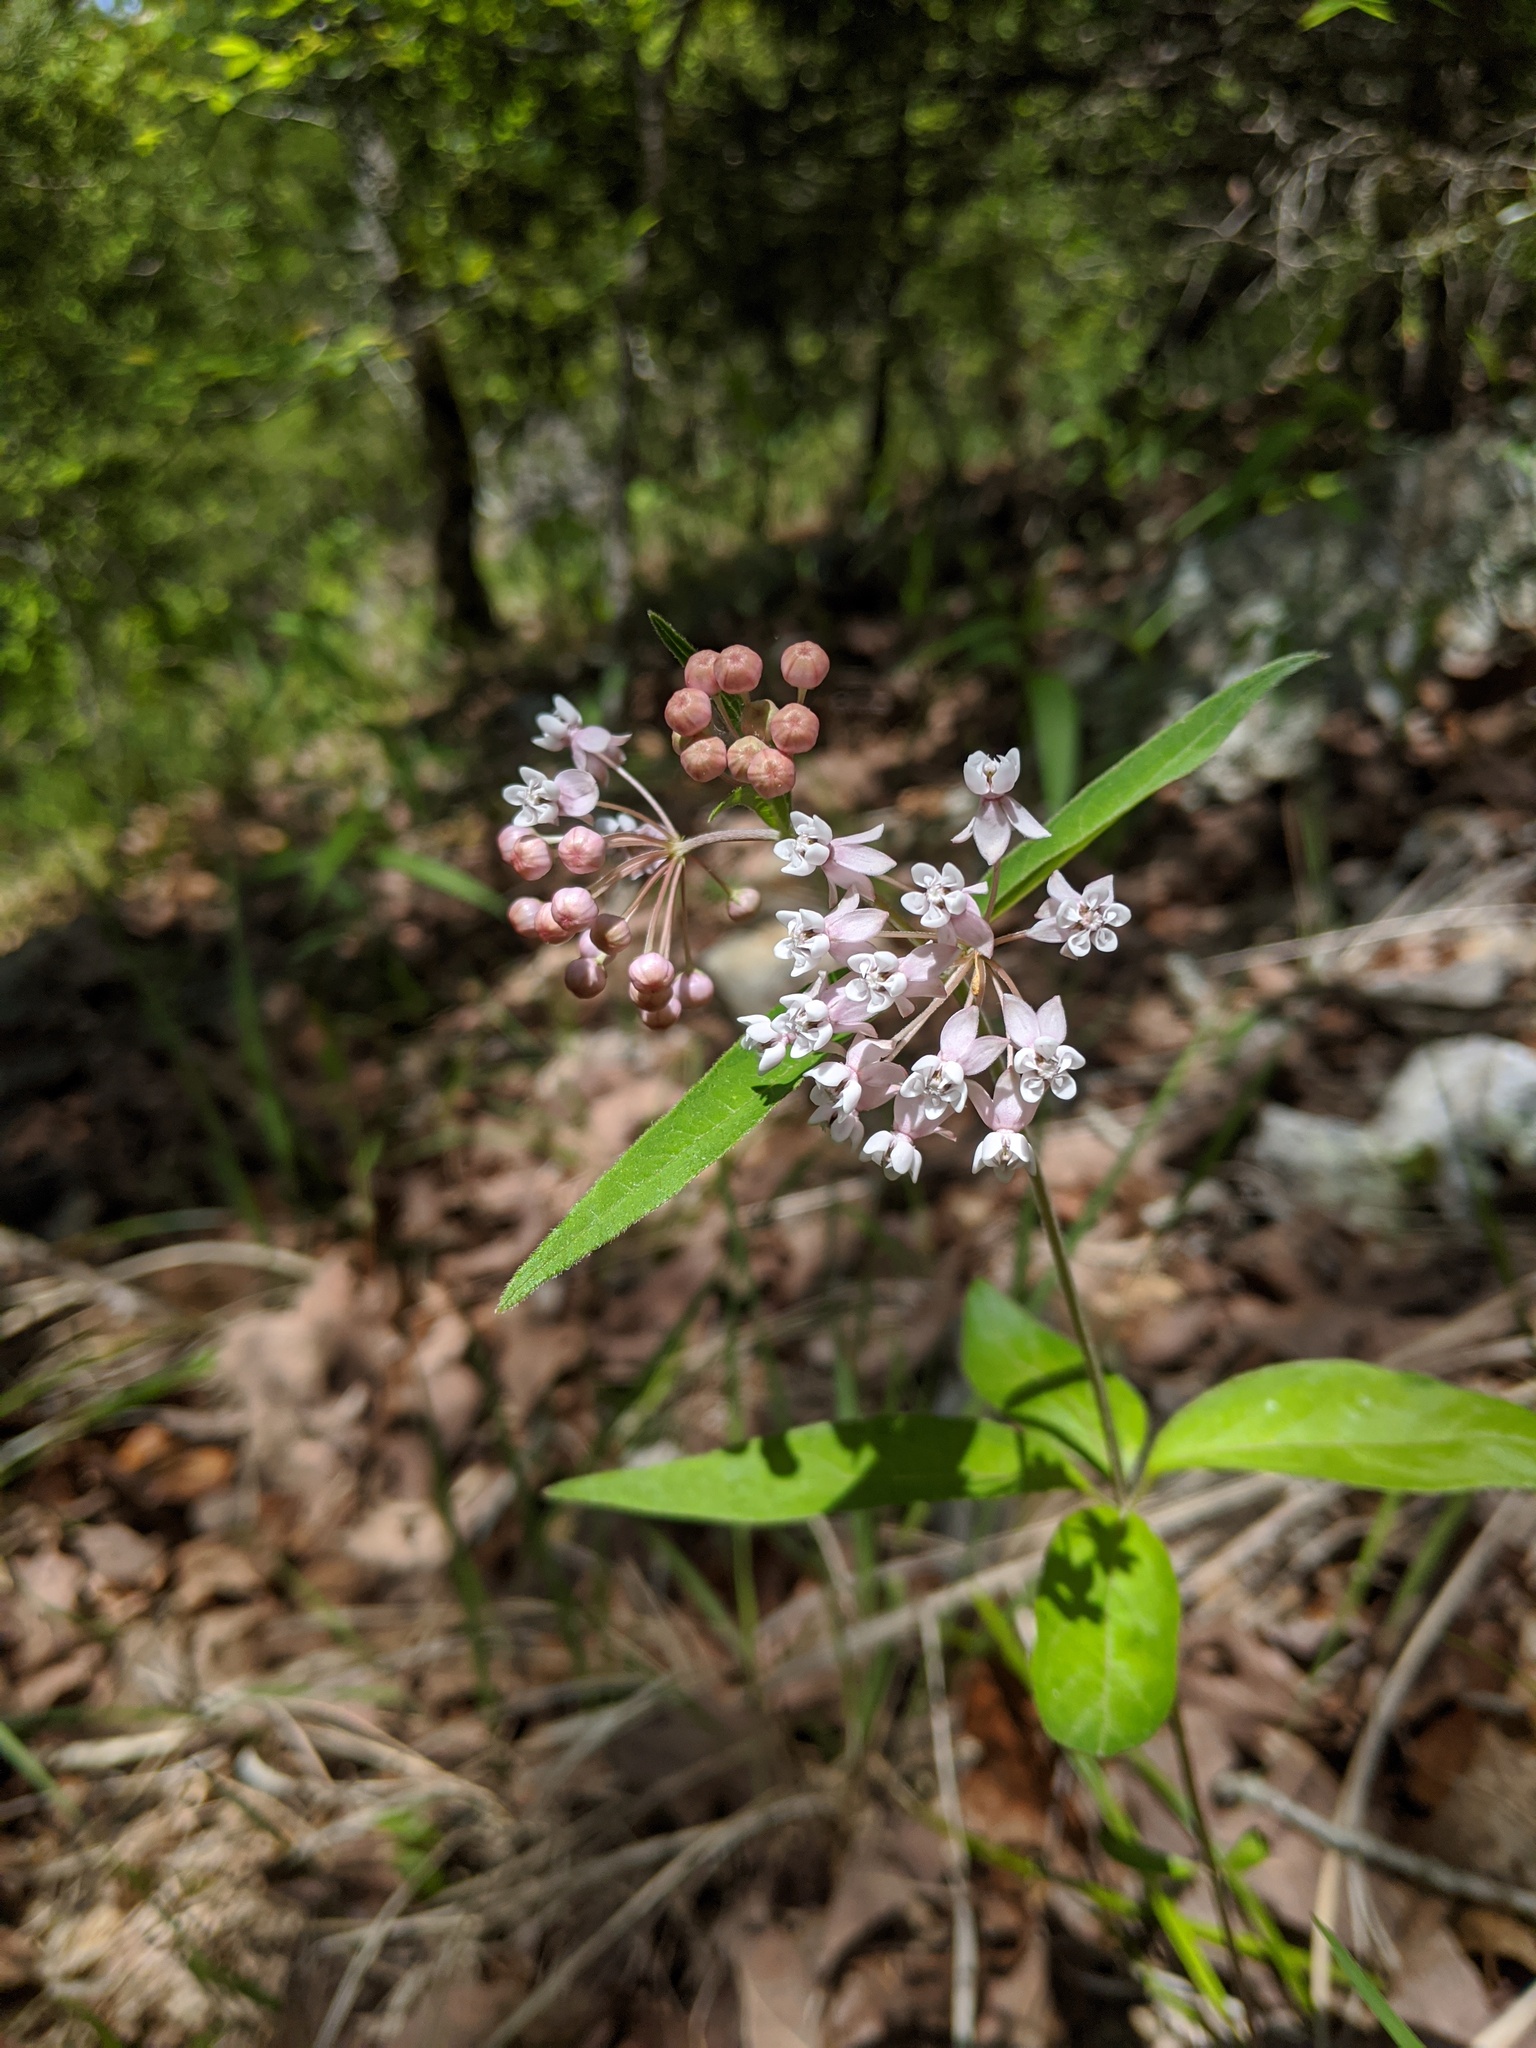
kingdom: Plantae
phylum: Tracheophyta
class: Magnoliopsida
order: Gentianales
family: Apocynaceae
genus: Asclepias
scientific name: Asclepias quadrifolia
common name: Whorled milkweed
